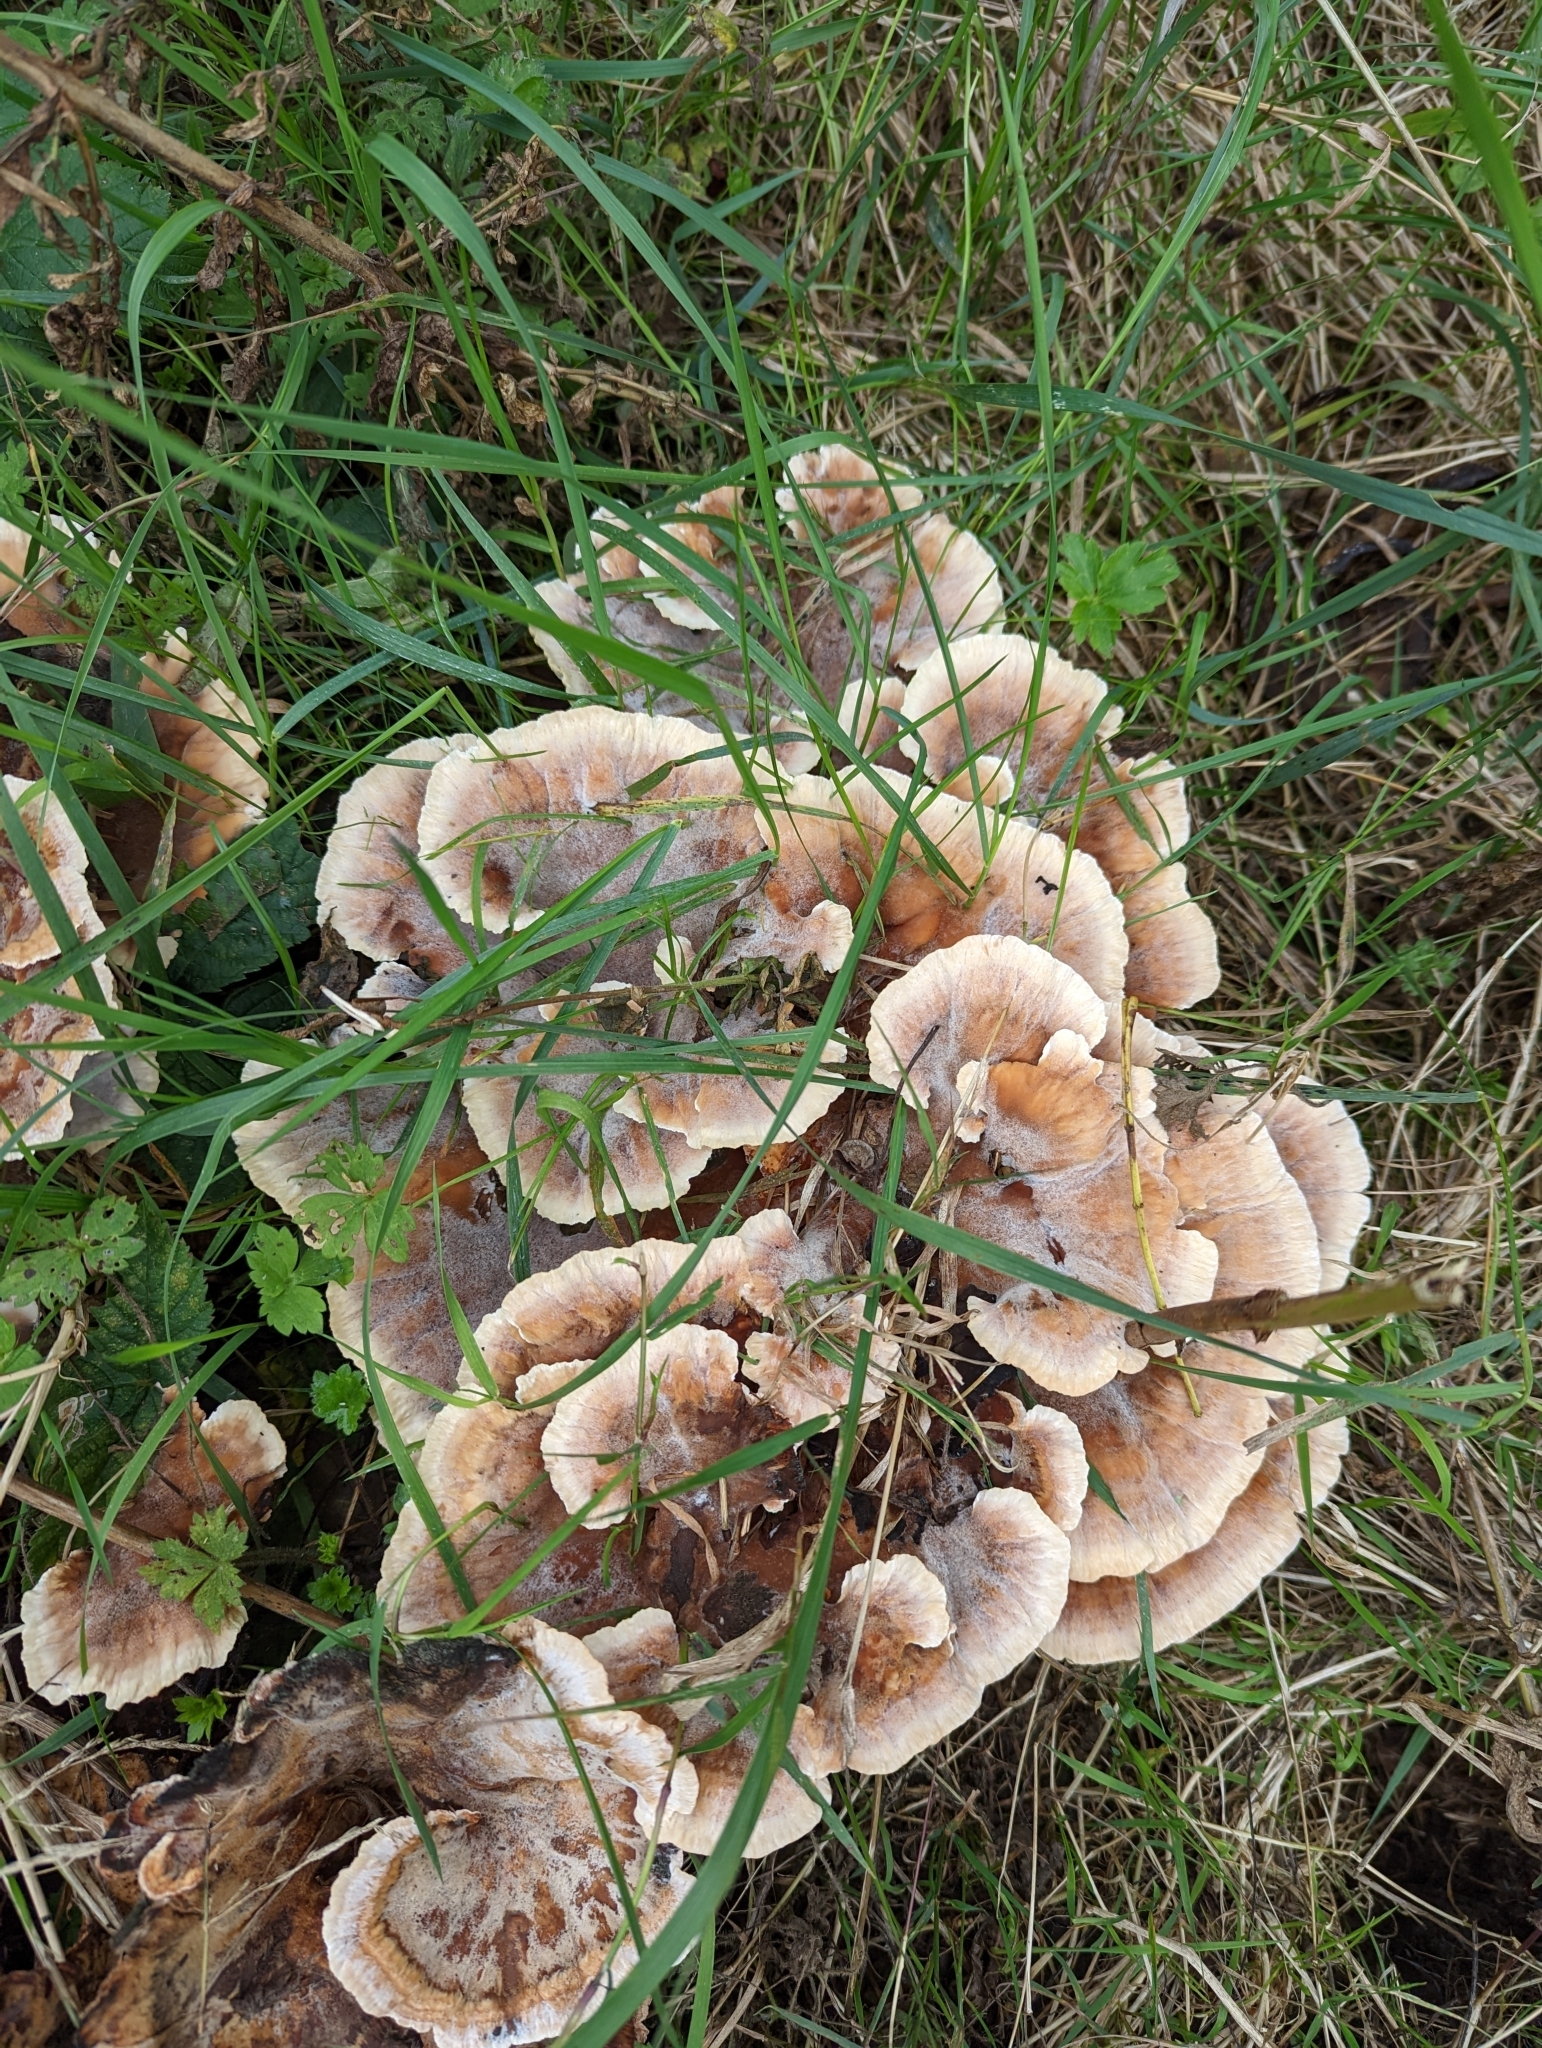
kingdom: Fungi
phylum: Basidiomycota
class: Agaricomycetes
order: Polyporales
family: Podoscyphaceae
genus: Abortiporus
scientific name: Abortiporus biennis
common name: Blushing rosette
